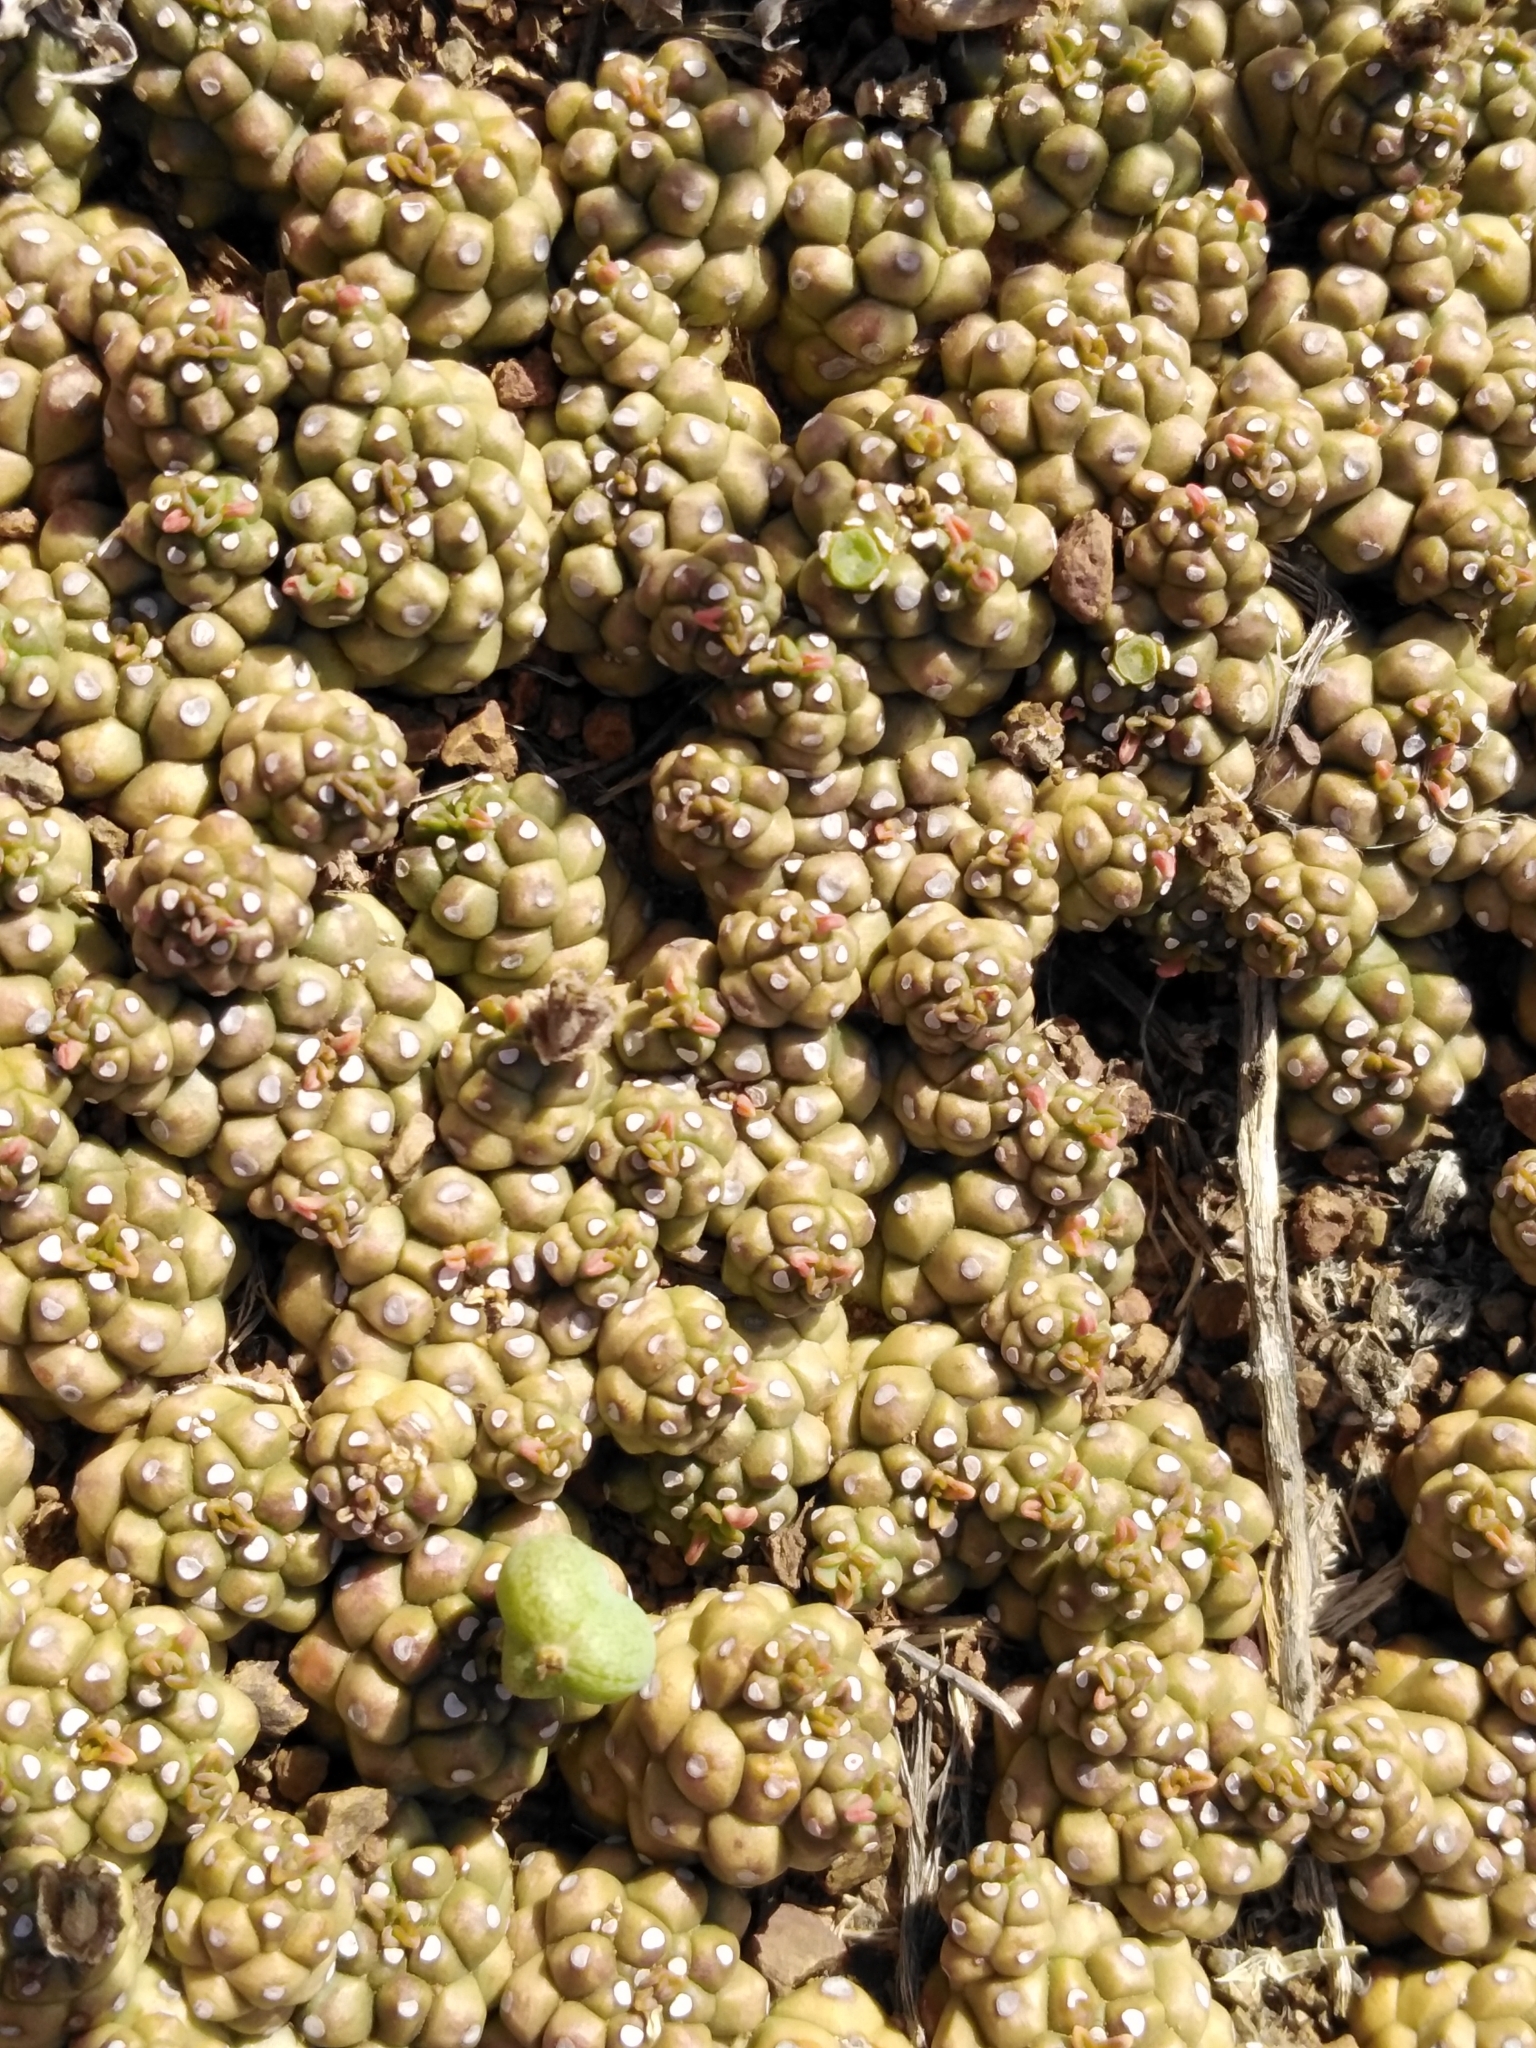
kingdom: Plantae
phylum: Tracheophyta
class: Magnoliopsida
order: Malpighiales
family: Euphorbiaceae
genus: Euphorbia
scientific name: Euphorbia clavarioides
